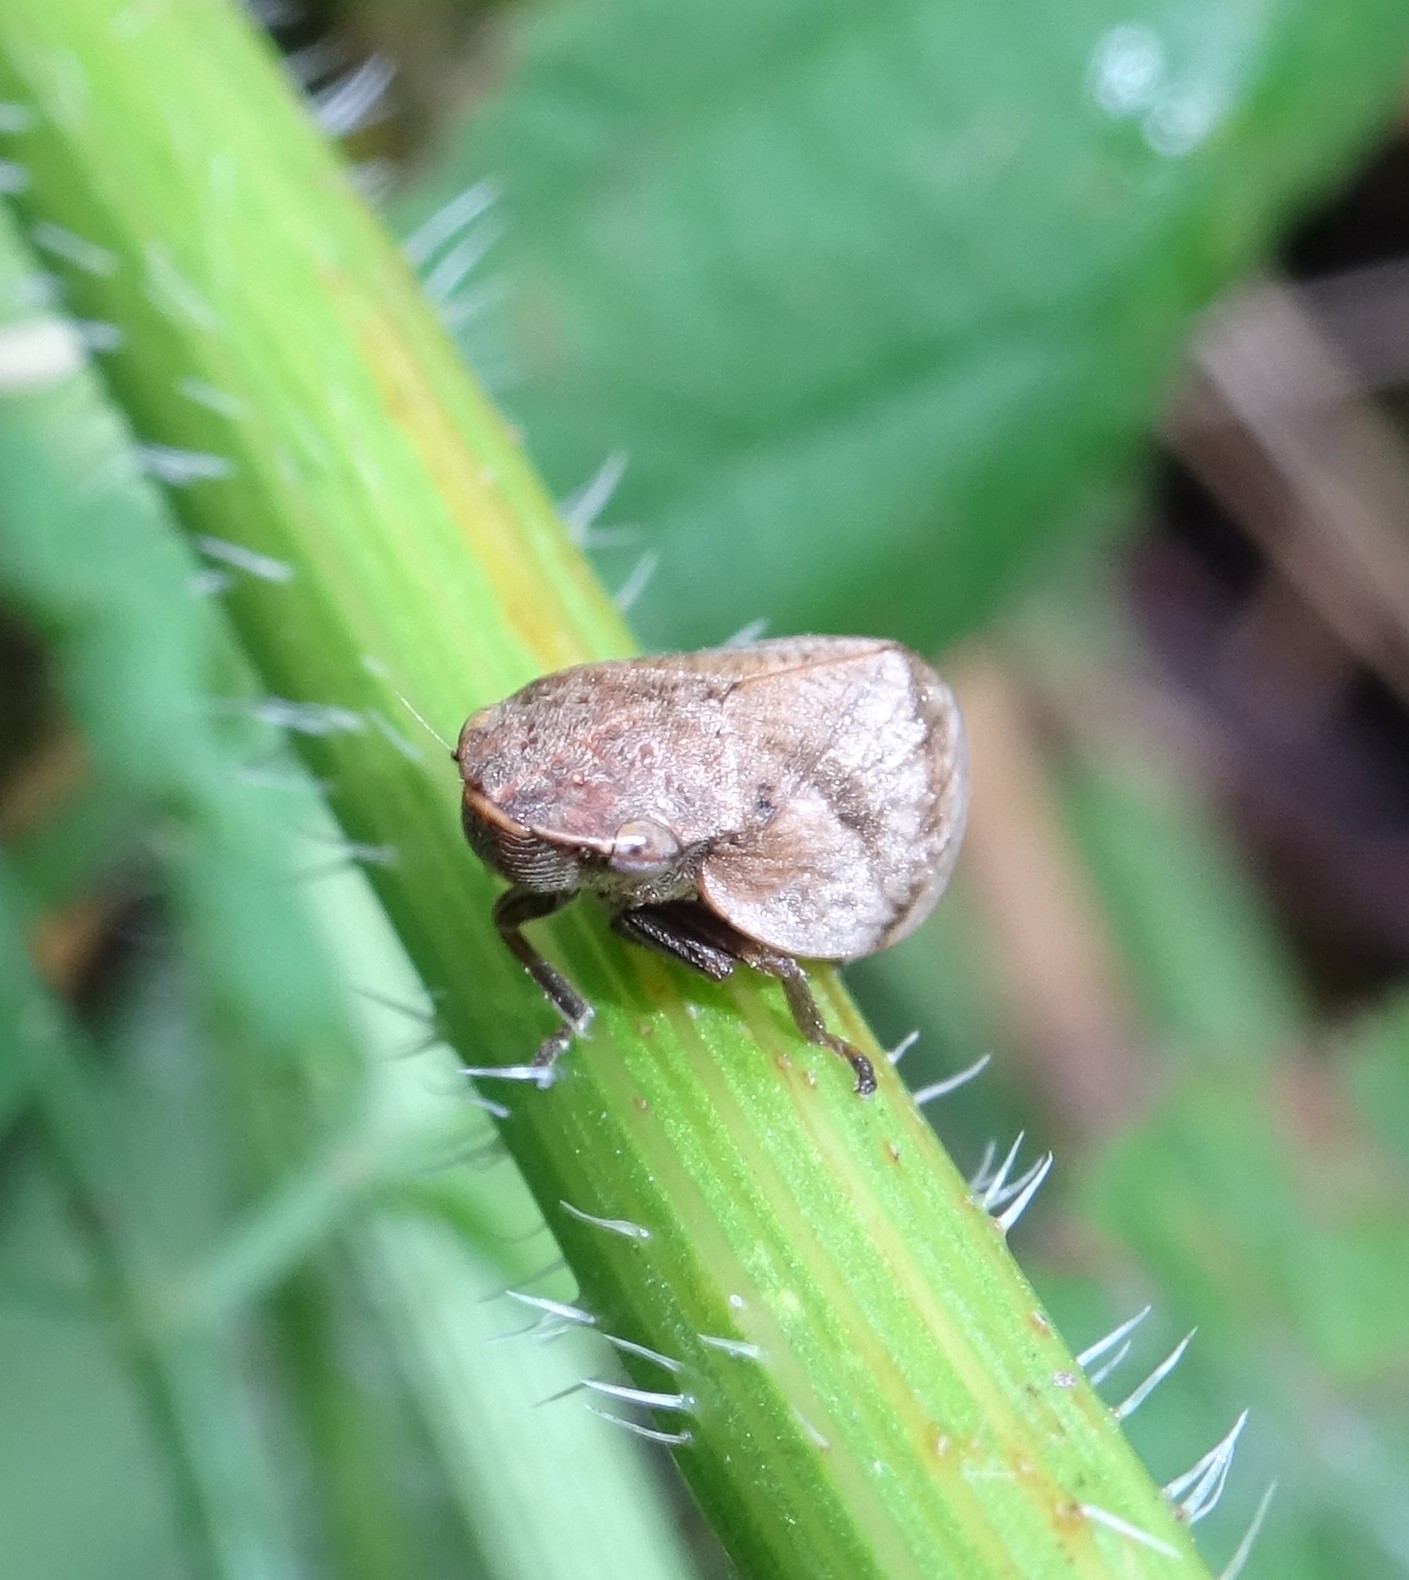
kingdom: Animalia
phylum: Arthropoda
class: Insecta
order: Hemiptera
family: Aphrophoridae
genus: Lepyronia
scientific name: Lepyronia coleoptrata
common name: Leafhopper
